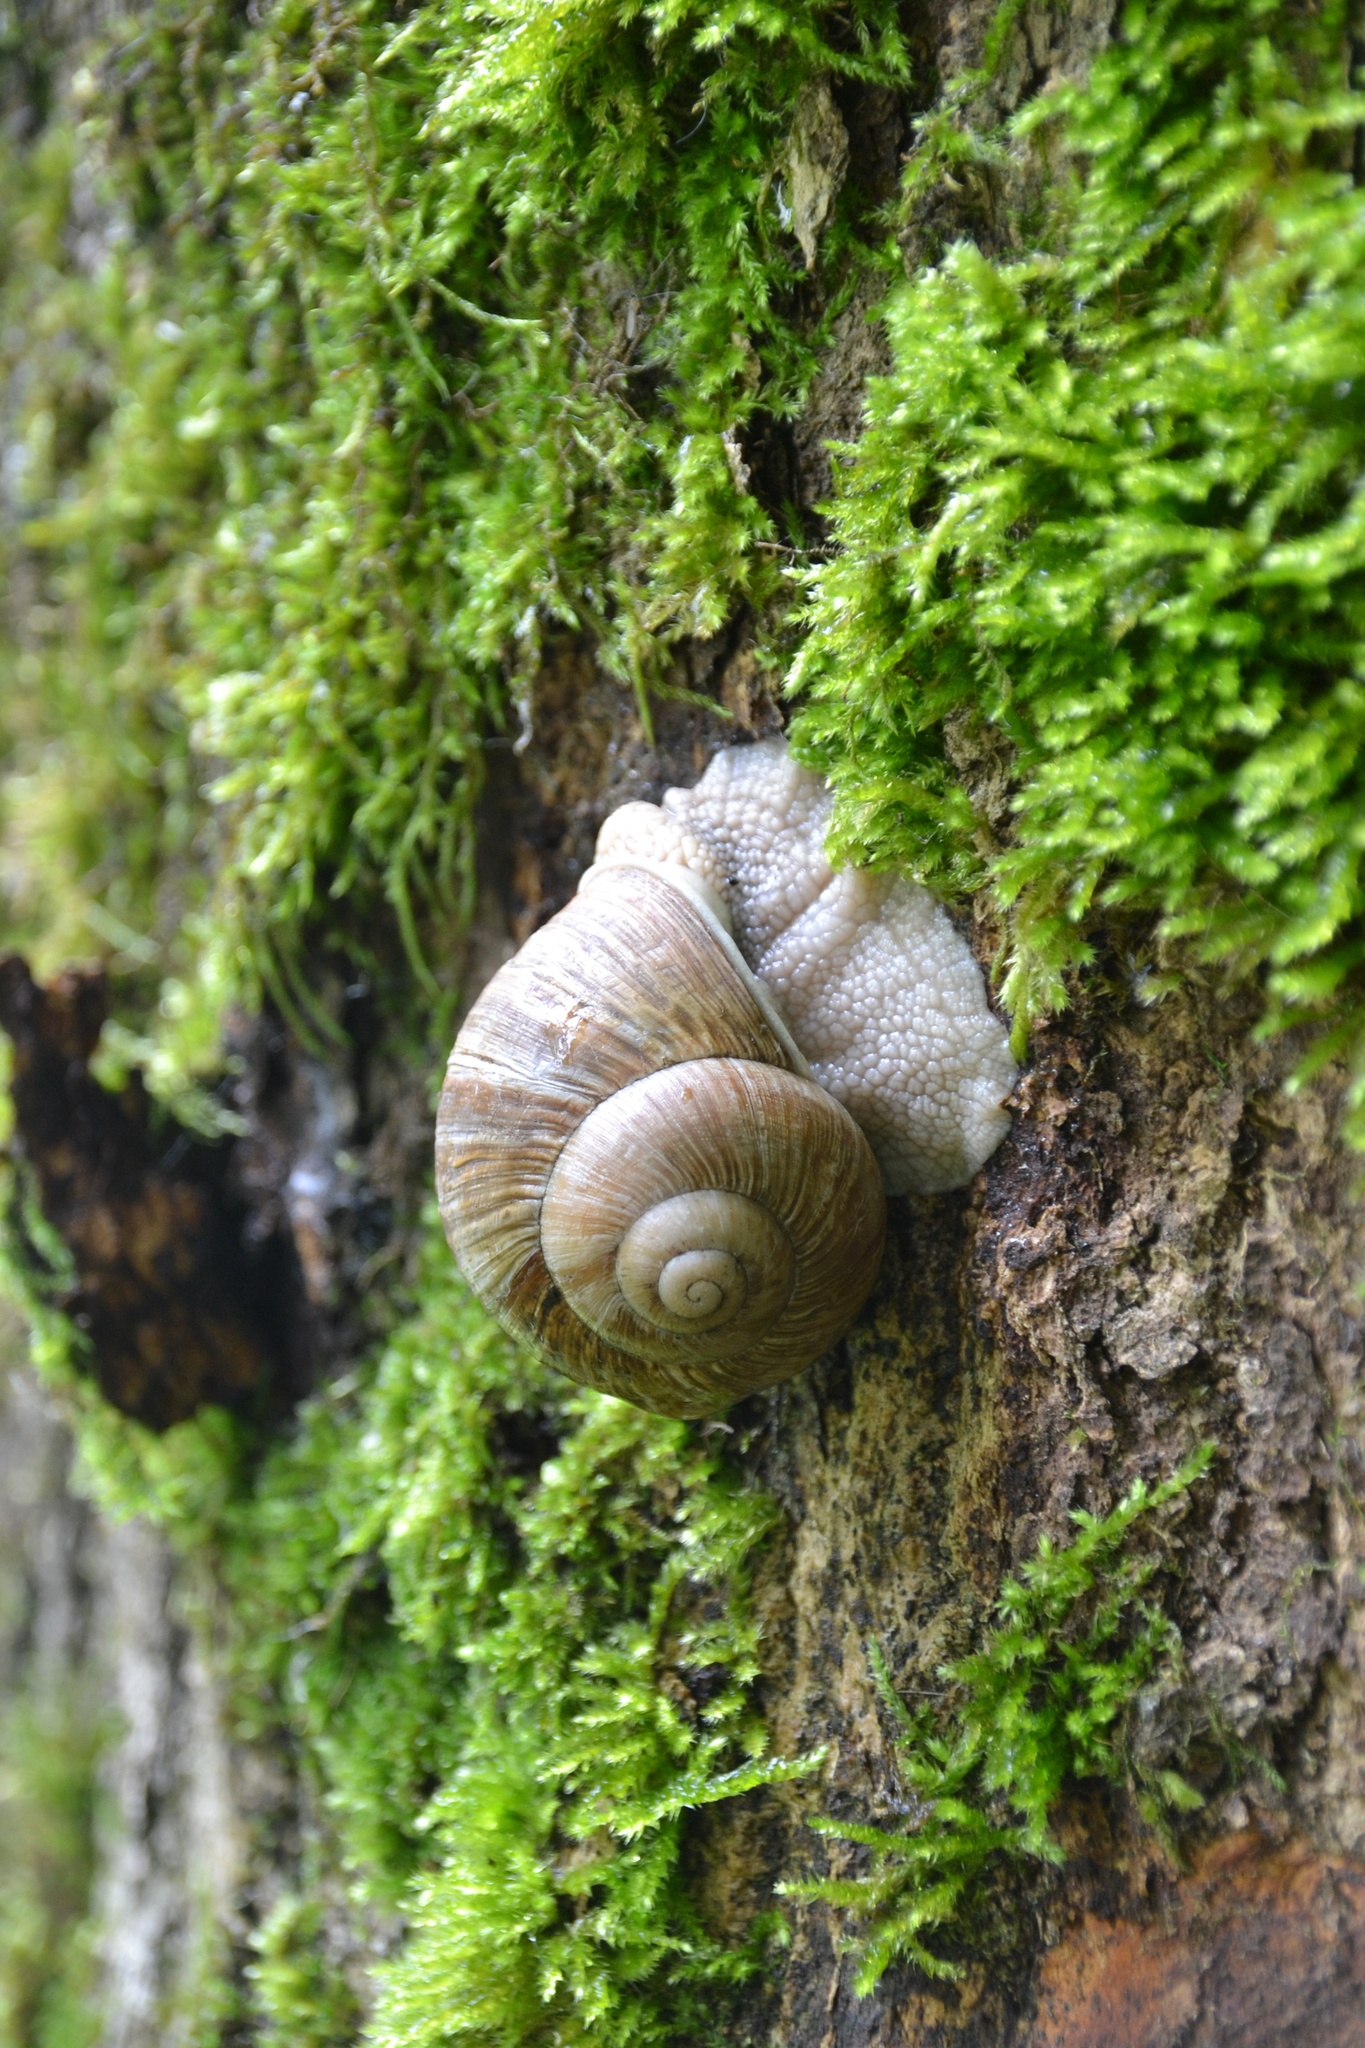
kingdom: Animalia
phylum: Mollusca
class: Gastropoda
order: Stylommatophora
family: Helicidae
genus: Helix
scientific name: Helix pomatia
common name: Roman snail
